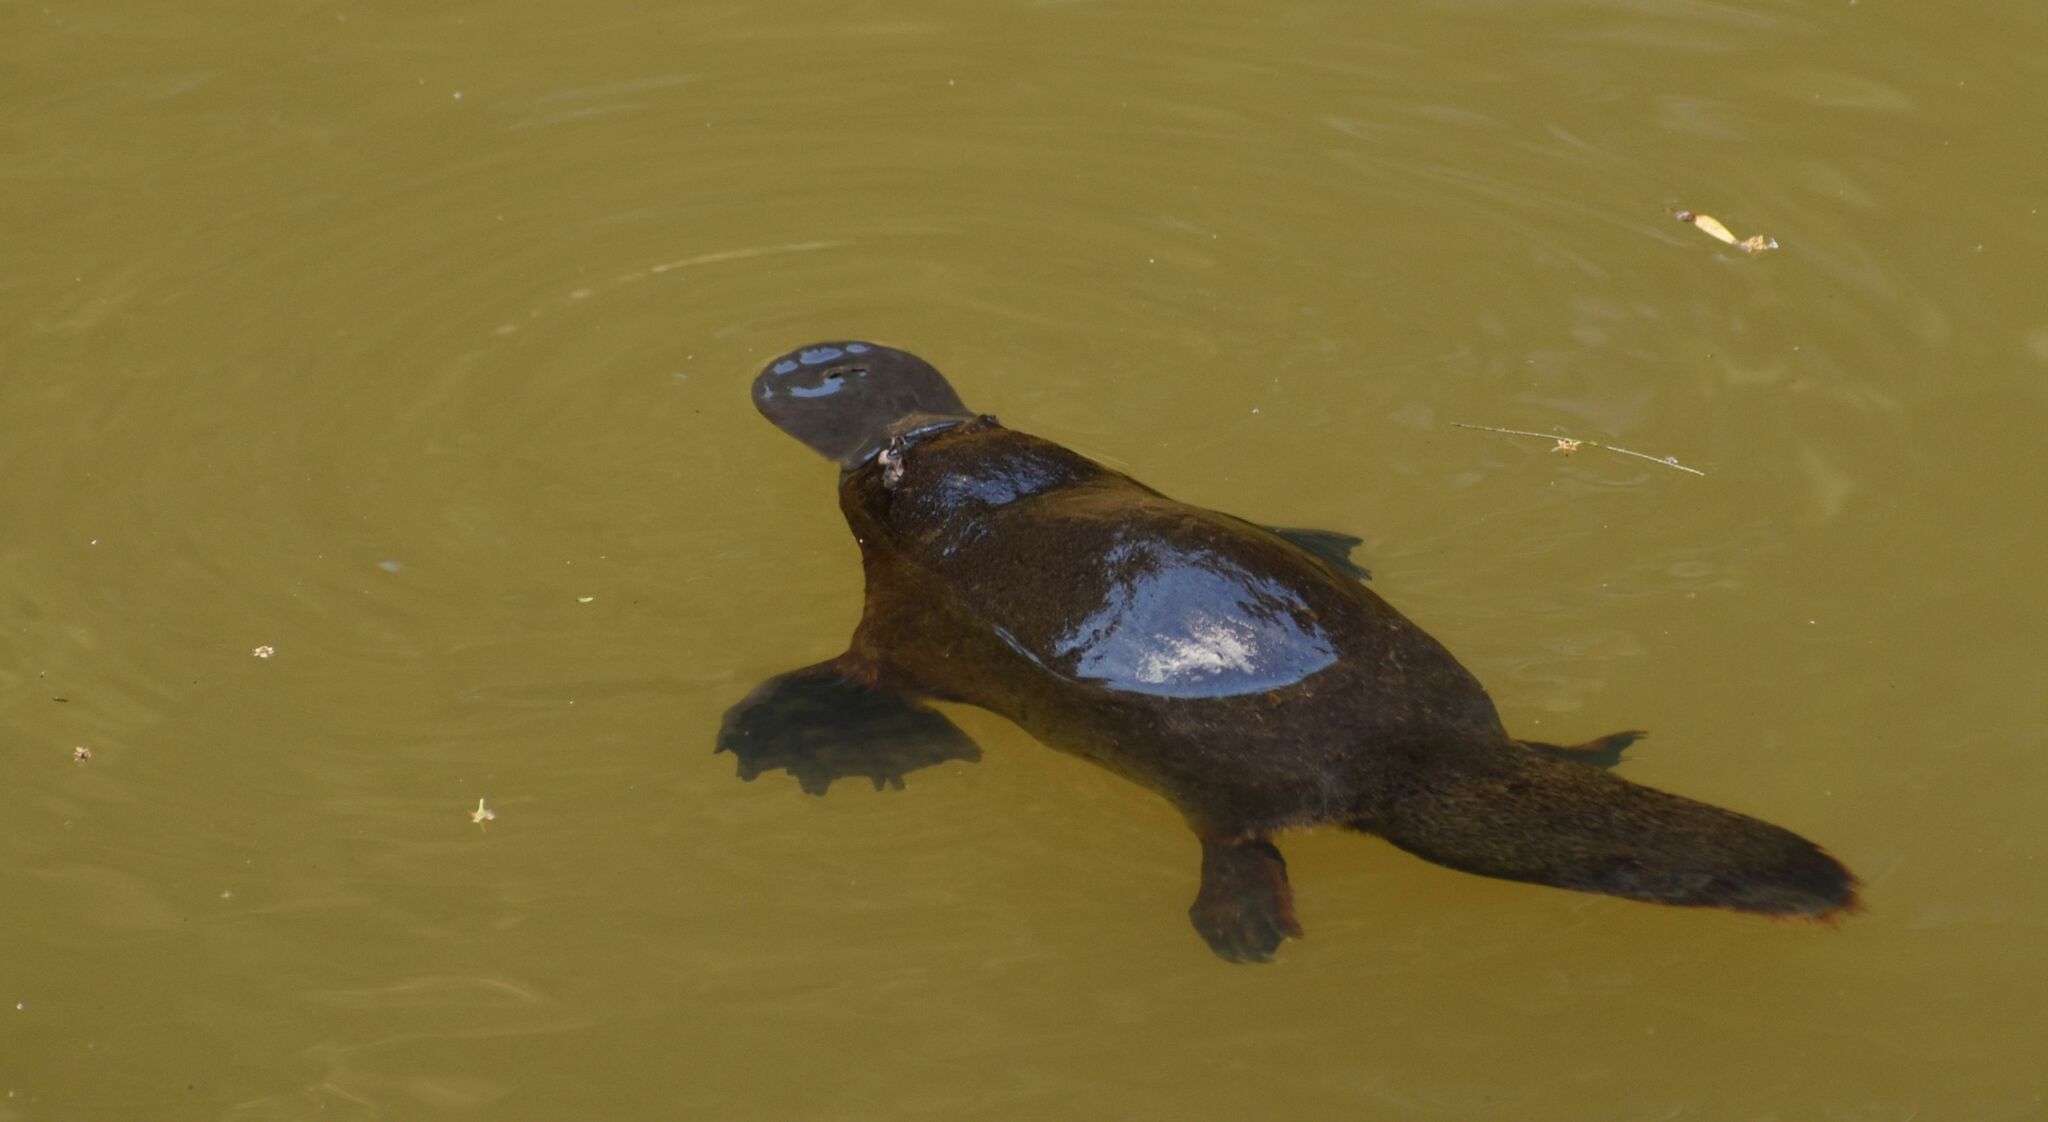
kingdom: Animalia
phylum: Chordata
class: Mammalia
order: Monotremata
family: Ornithorhynchidae
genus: Ornithorhynchus
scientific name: Ornithorhynchus anatinus
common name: Platypus
